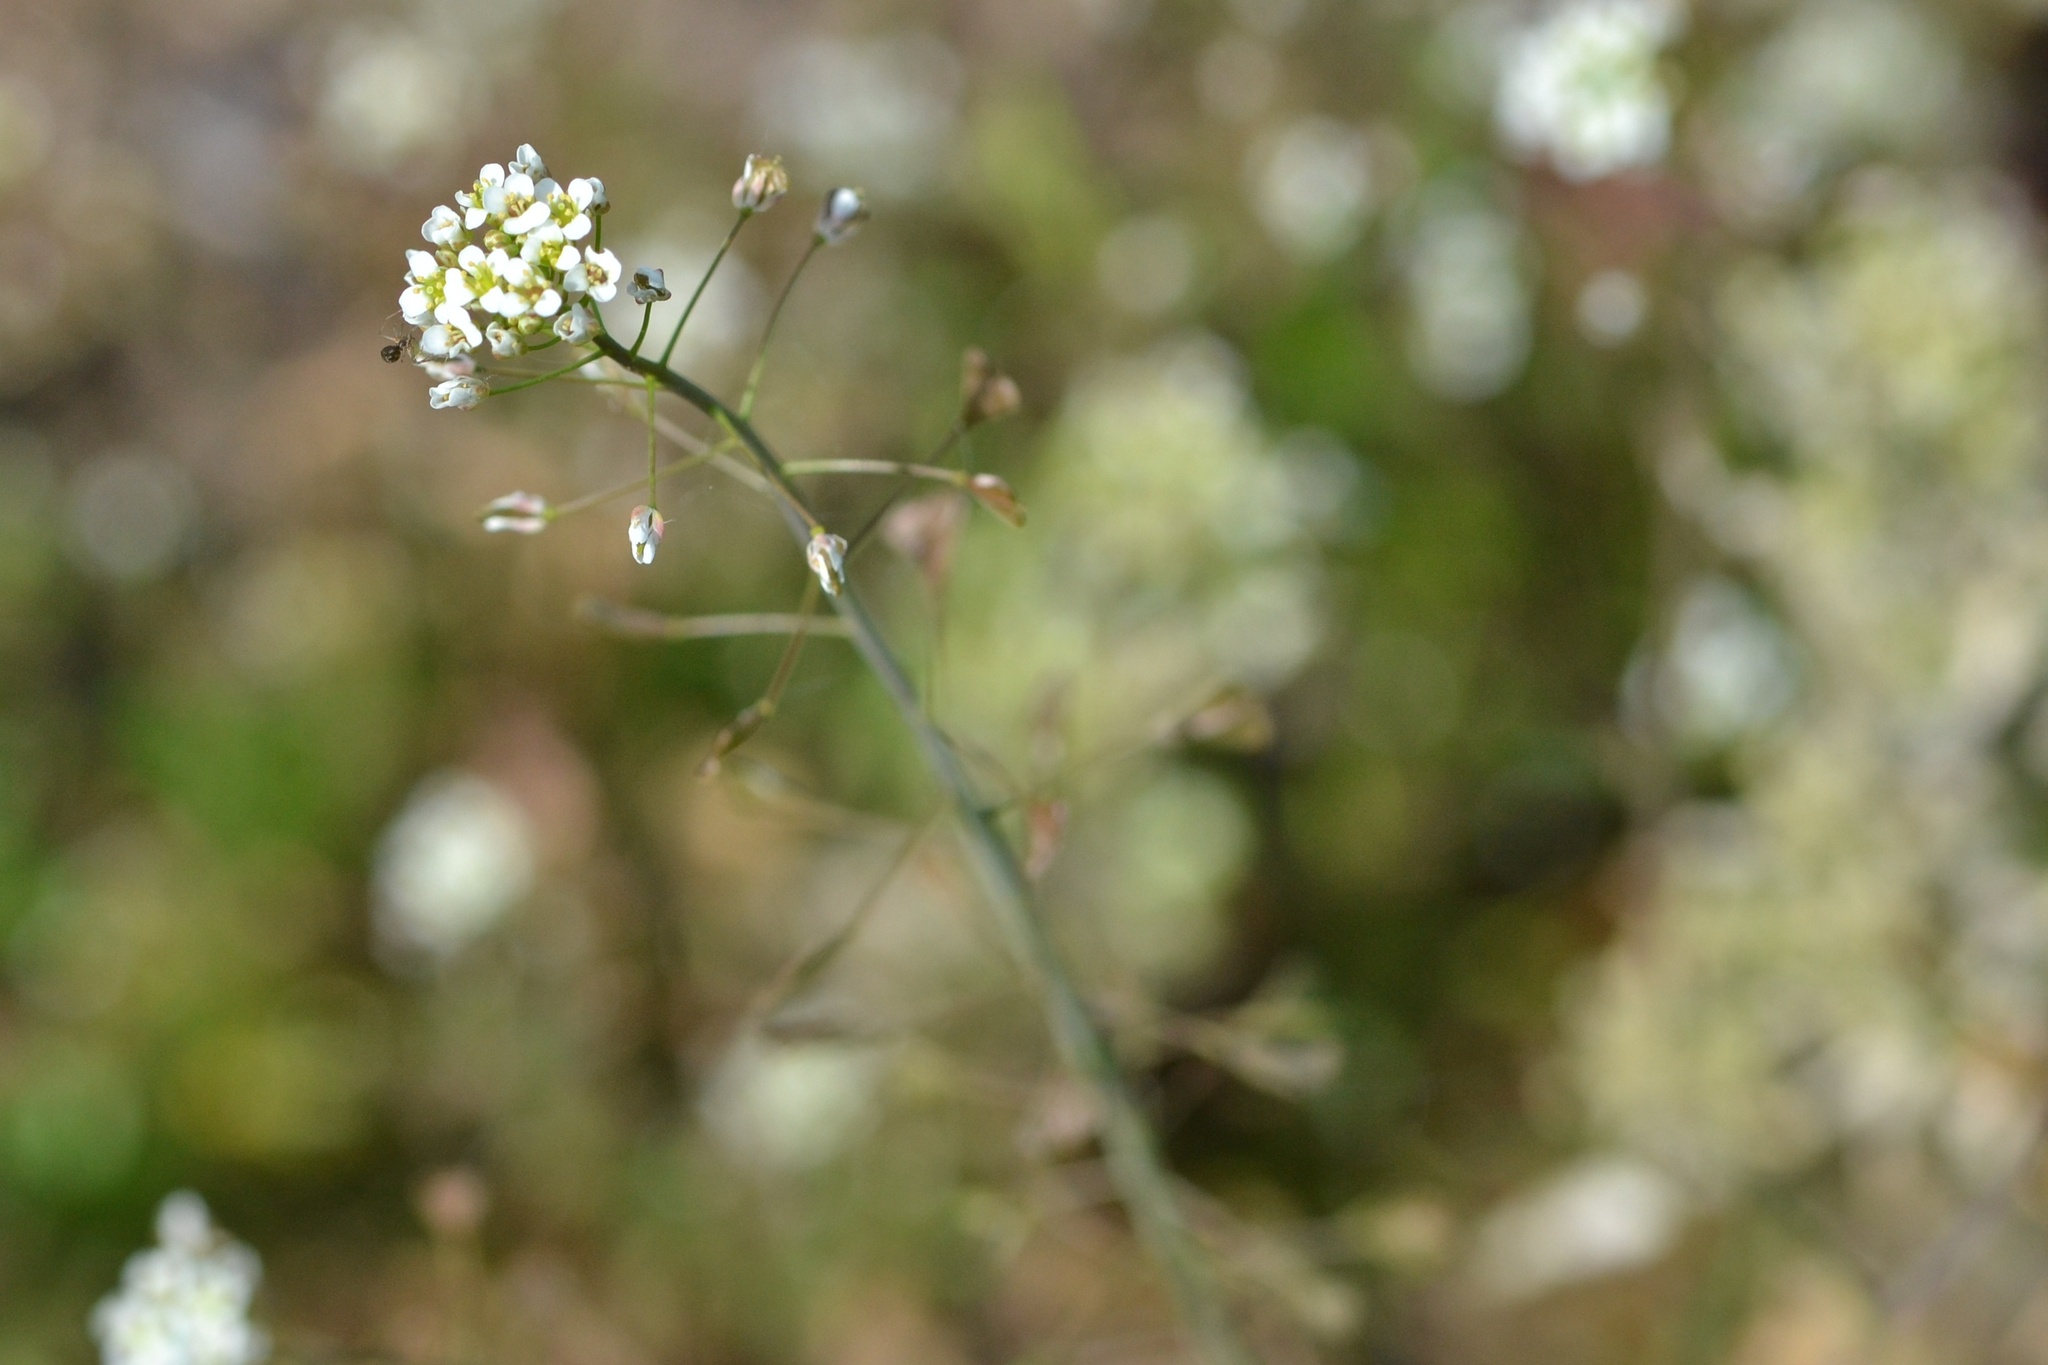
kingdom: Plantae
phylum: Tracheophyta
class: Magnoliopsida
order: Brassicales
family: Brassicaceae
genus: Capsella
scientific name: Capsella bursa-pastoris
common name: Shepherd's purse
